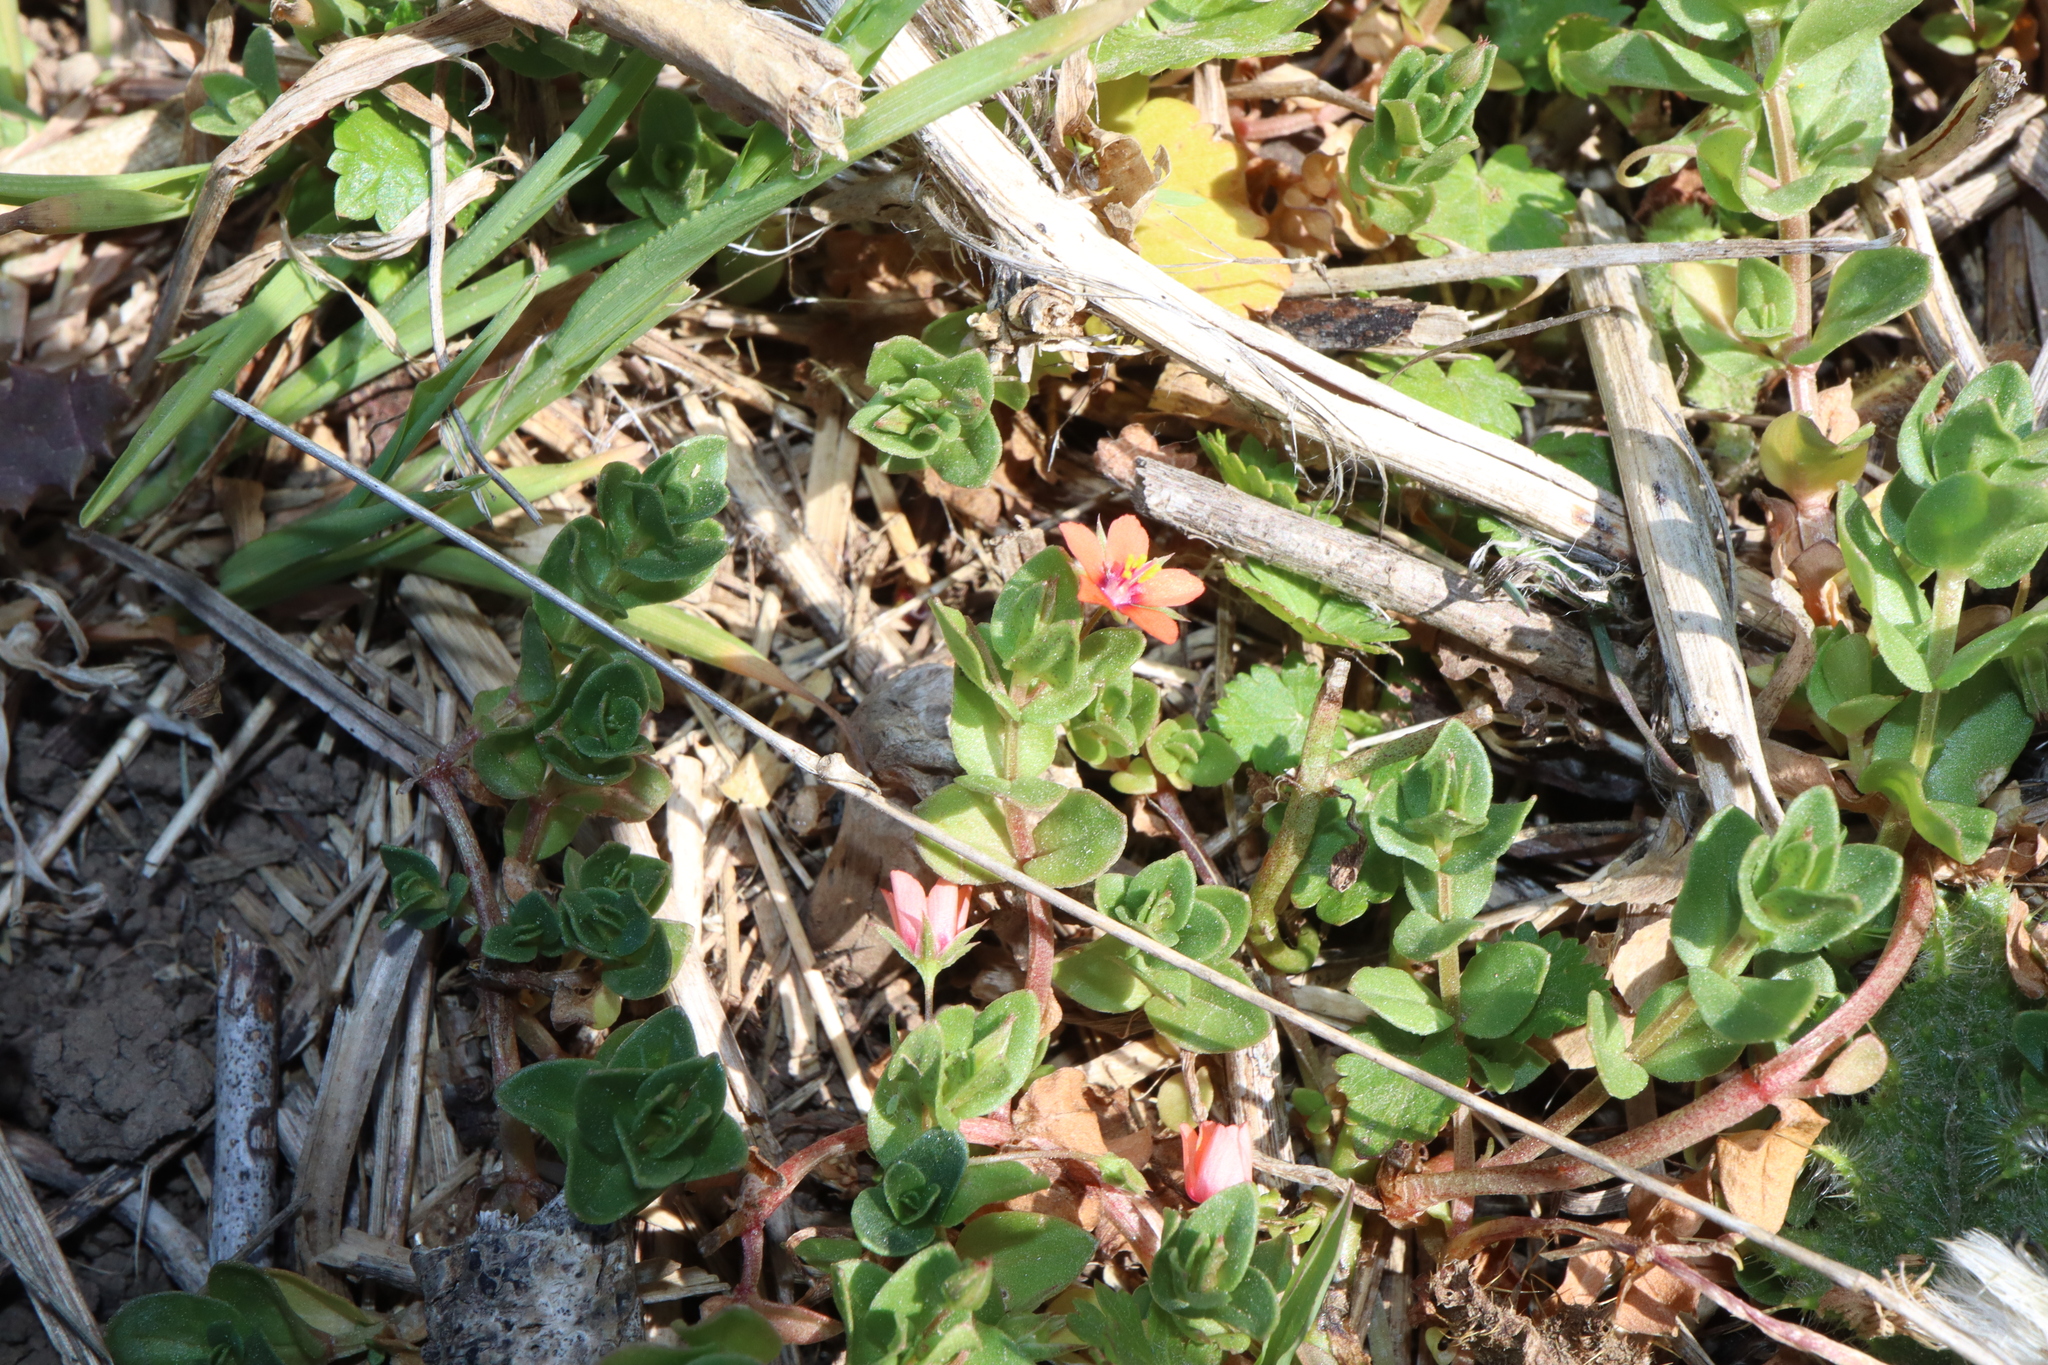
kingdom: Plantae
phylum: Tracheophyta
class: Magnoliopsida
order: Ericales
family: Primulaceae
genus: Lysimachia
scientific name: Lysimachia arvensis
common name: Scarlet pimpernel
